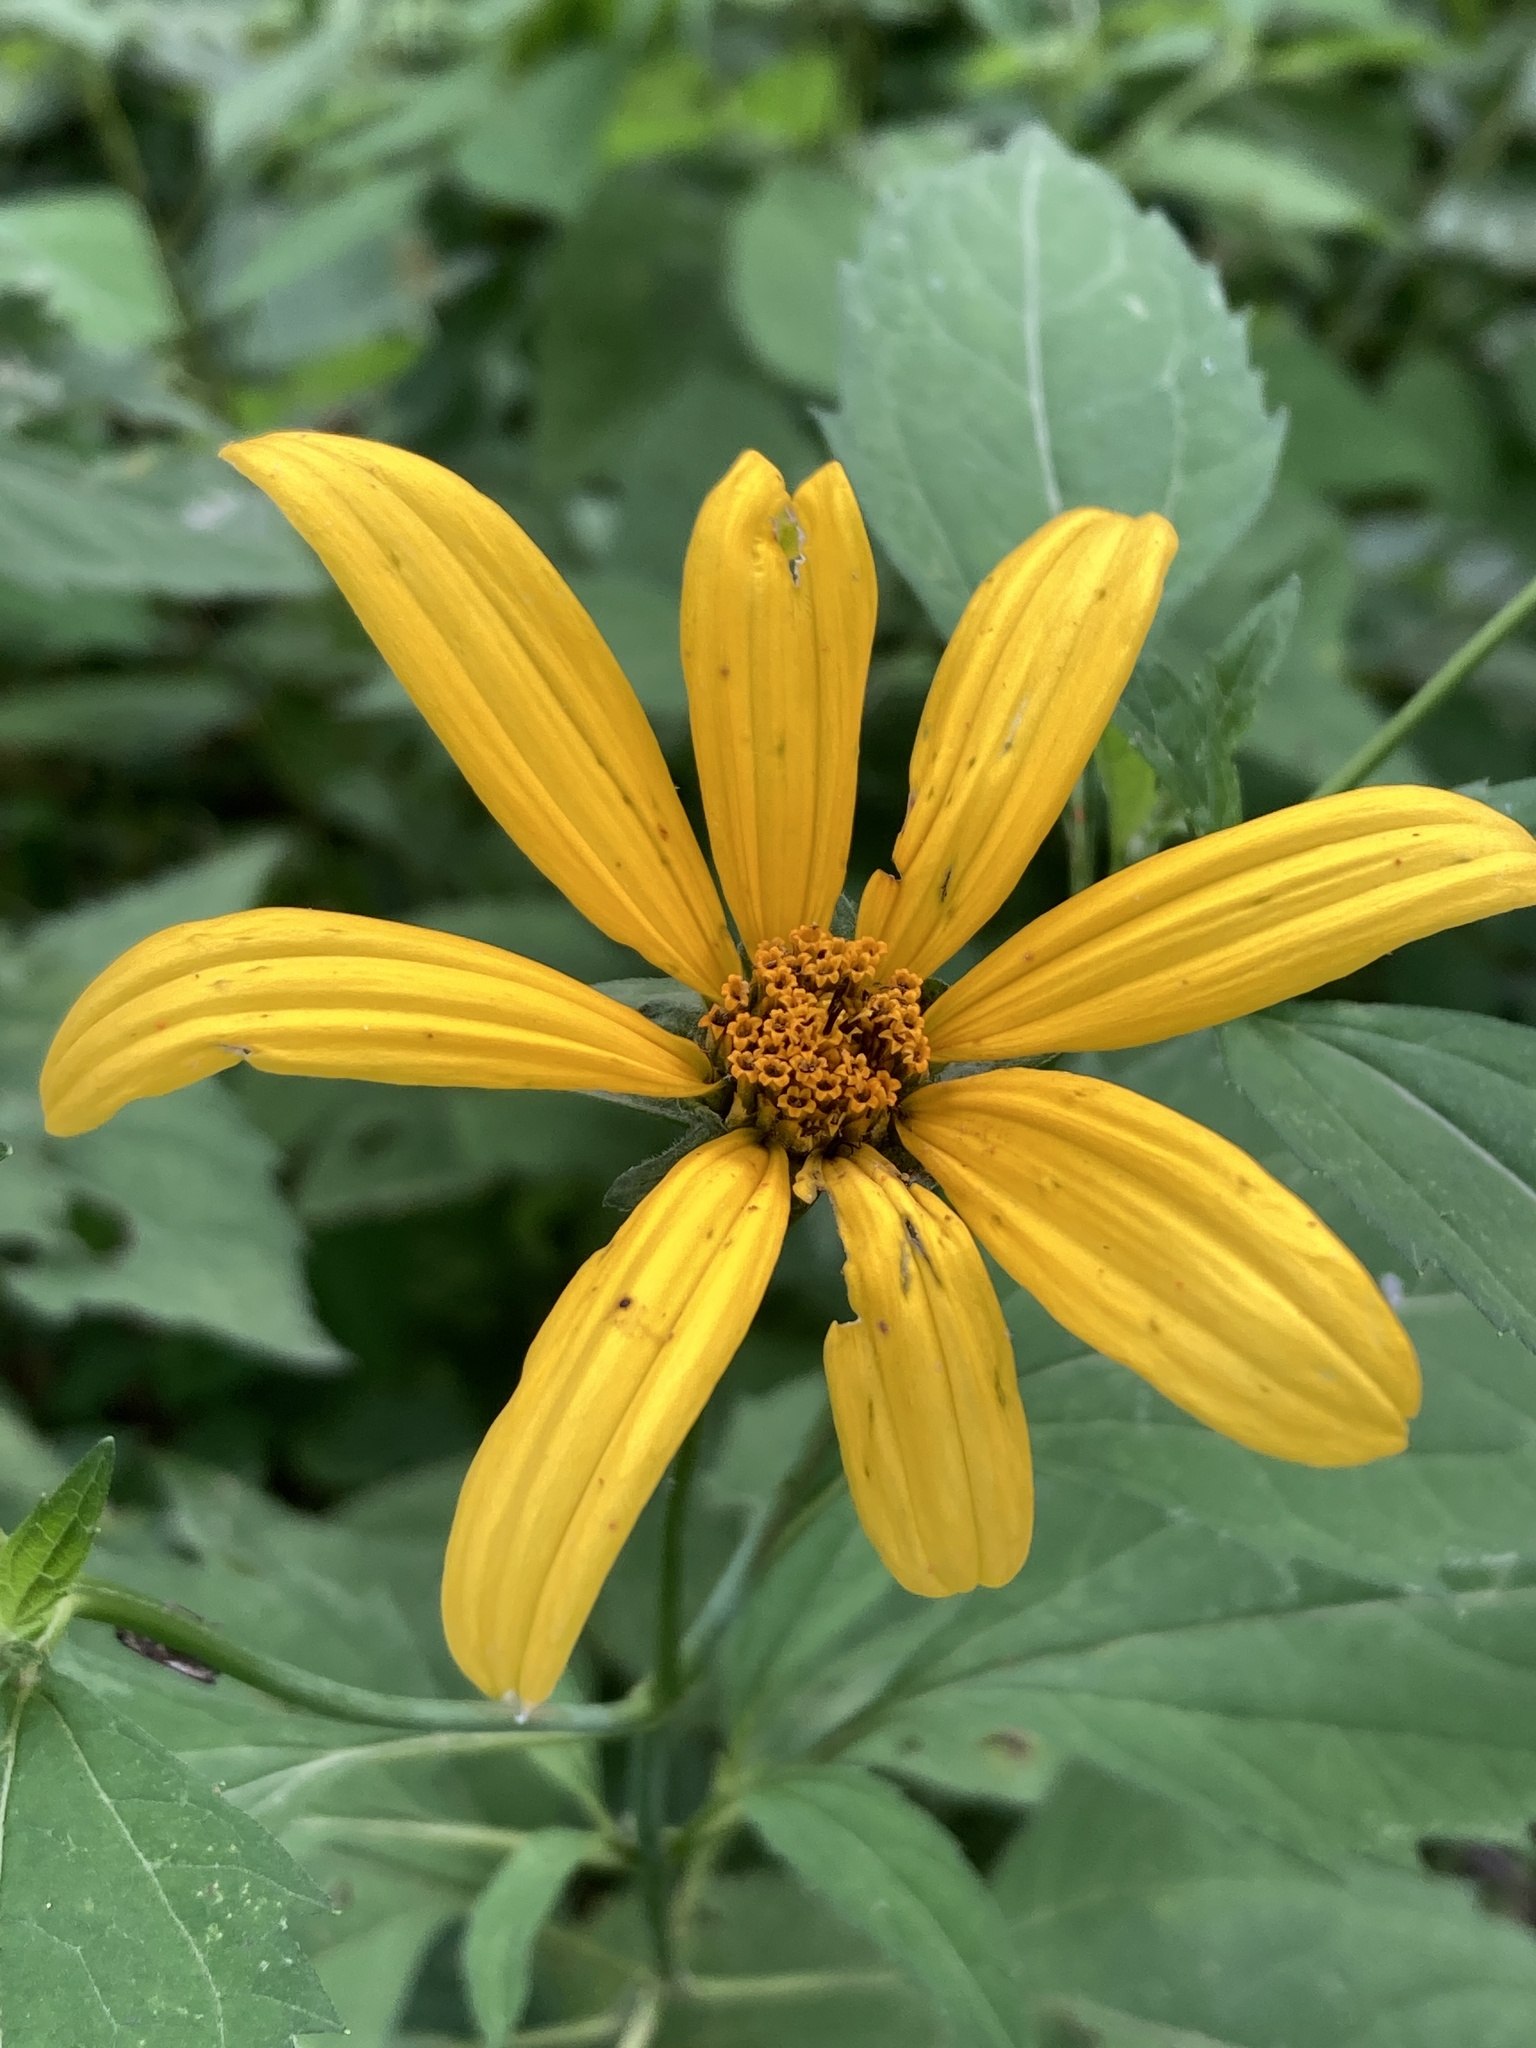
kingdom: Plantae
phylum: Tracheophyta
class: Magnoliopsida
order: Asterales
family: Asteraceae
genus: Heliopsis
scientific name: Heliopsis helianthoides
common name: False sunflower
